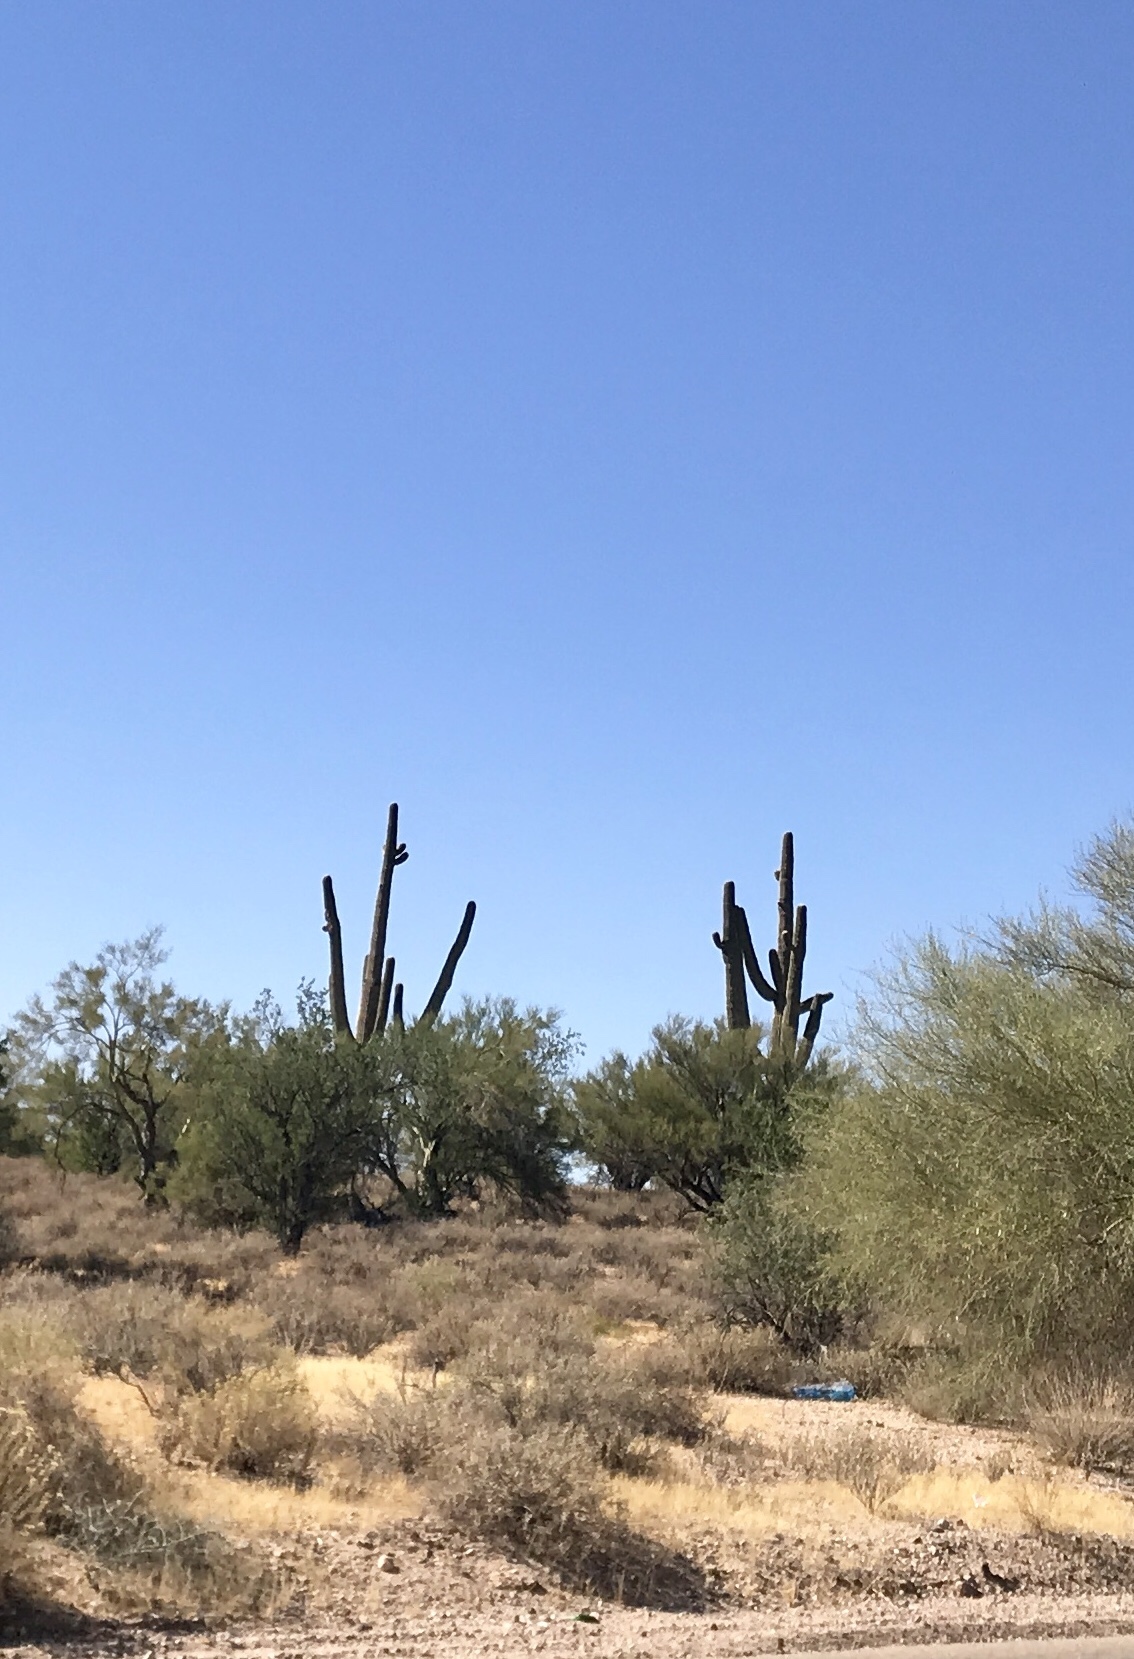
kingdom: Plantae
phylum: Tracheophyta
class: Magnoliopsida
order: Caryophyllales
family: Cactaceae
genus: Carnegiea
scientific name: Carnegiea gigantea
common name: Saguaro
